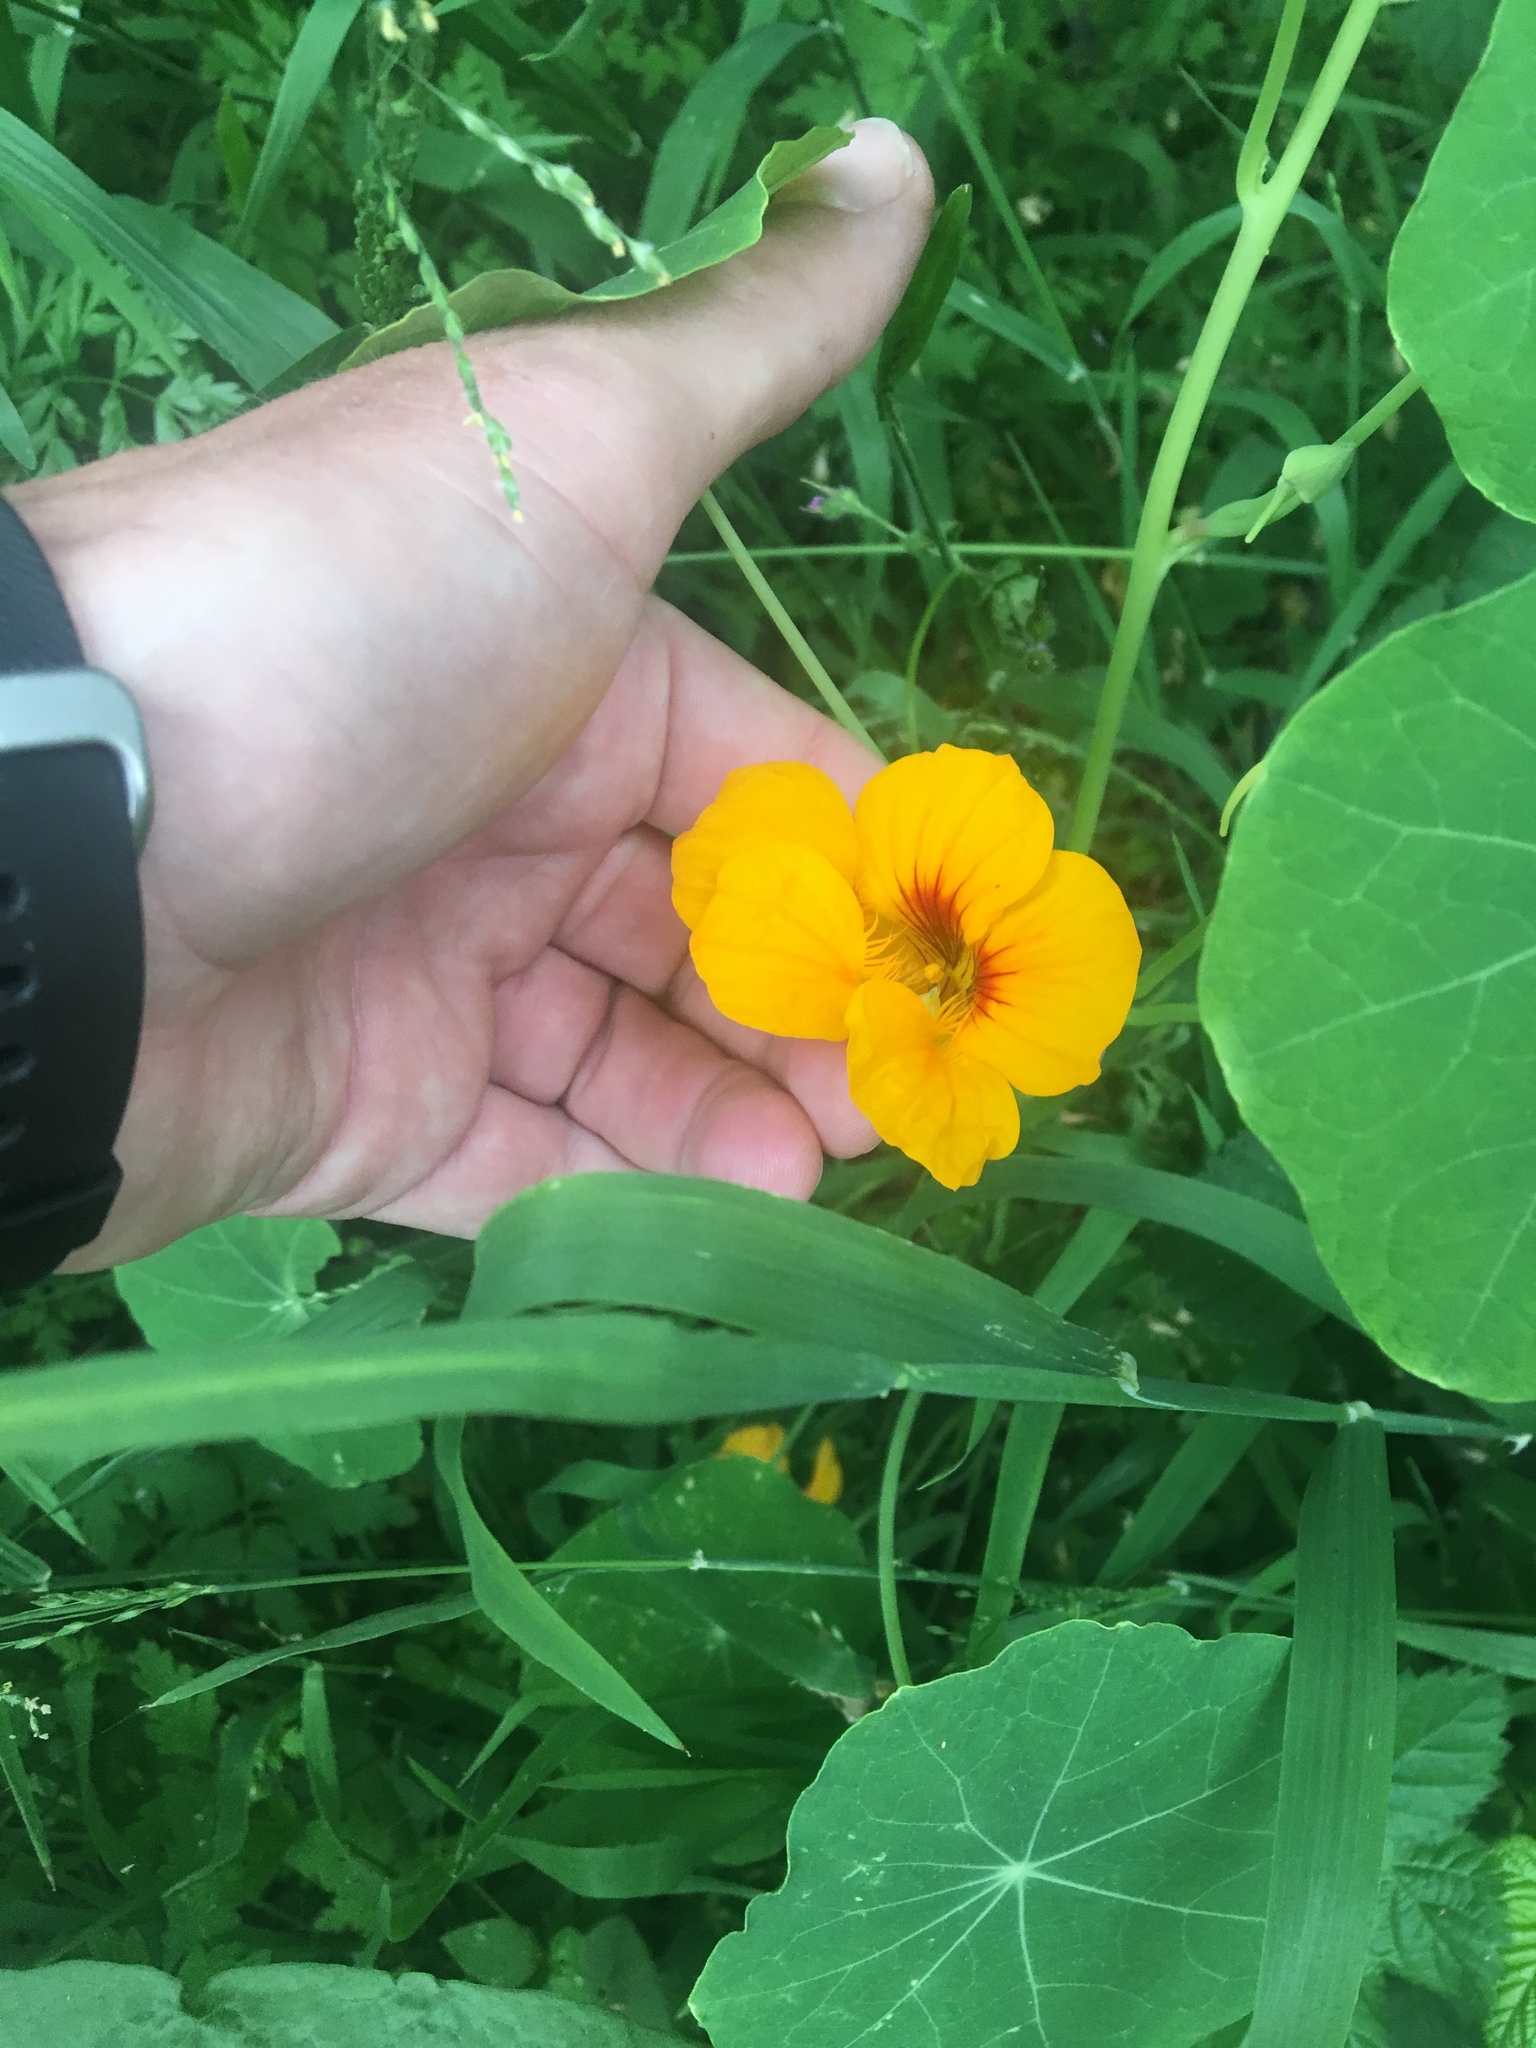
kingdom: Plantae
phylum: Tracheophyta
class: Magnoliopsida
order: Brassicales
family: Tropaeolaceae
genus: Tropaeolum
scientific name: Tropaeolum majus
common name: Nasturtium
